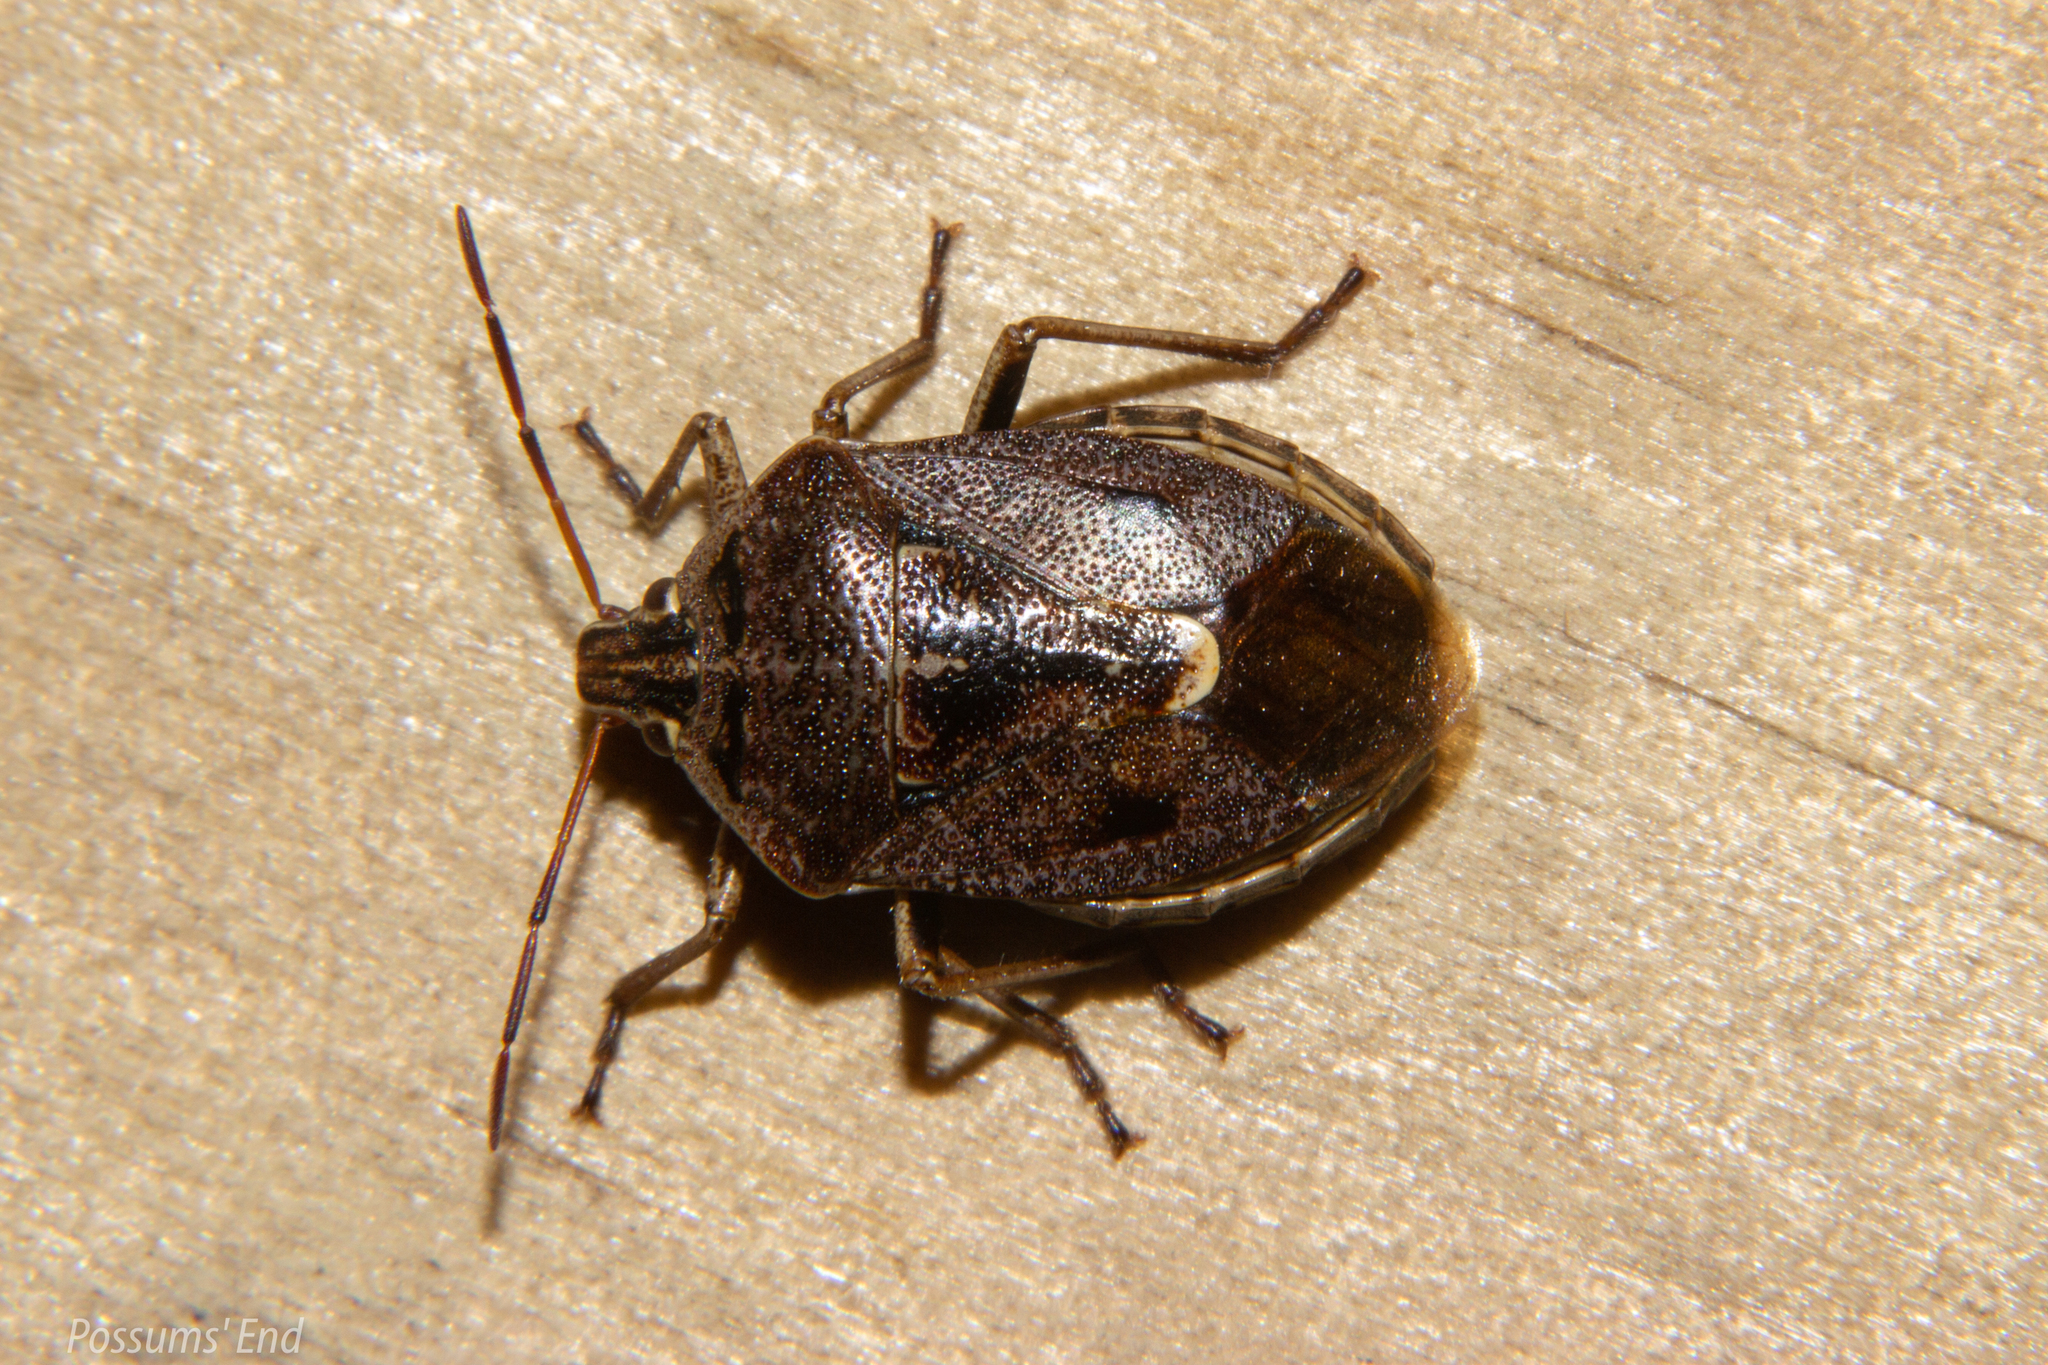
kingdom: Animalia
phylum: Arthropoda
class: Insecta
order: Hemiptera
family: Pentatomidae
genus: Cermatulus
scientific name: Cermatulus nasalis
